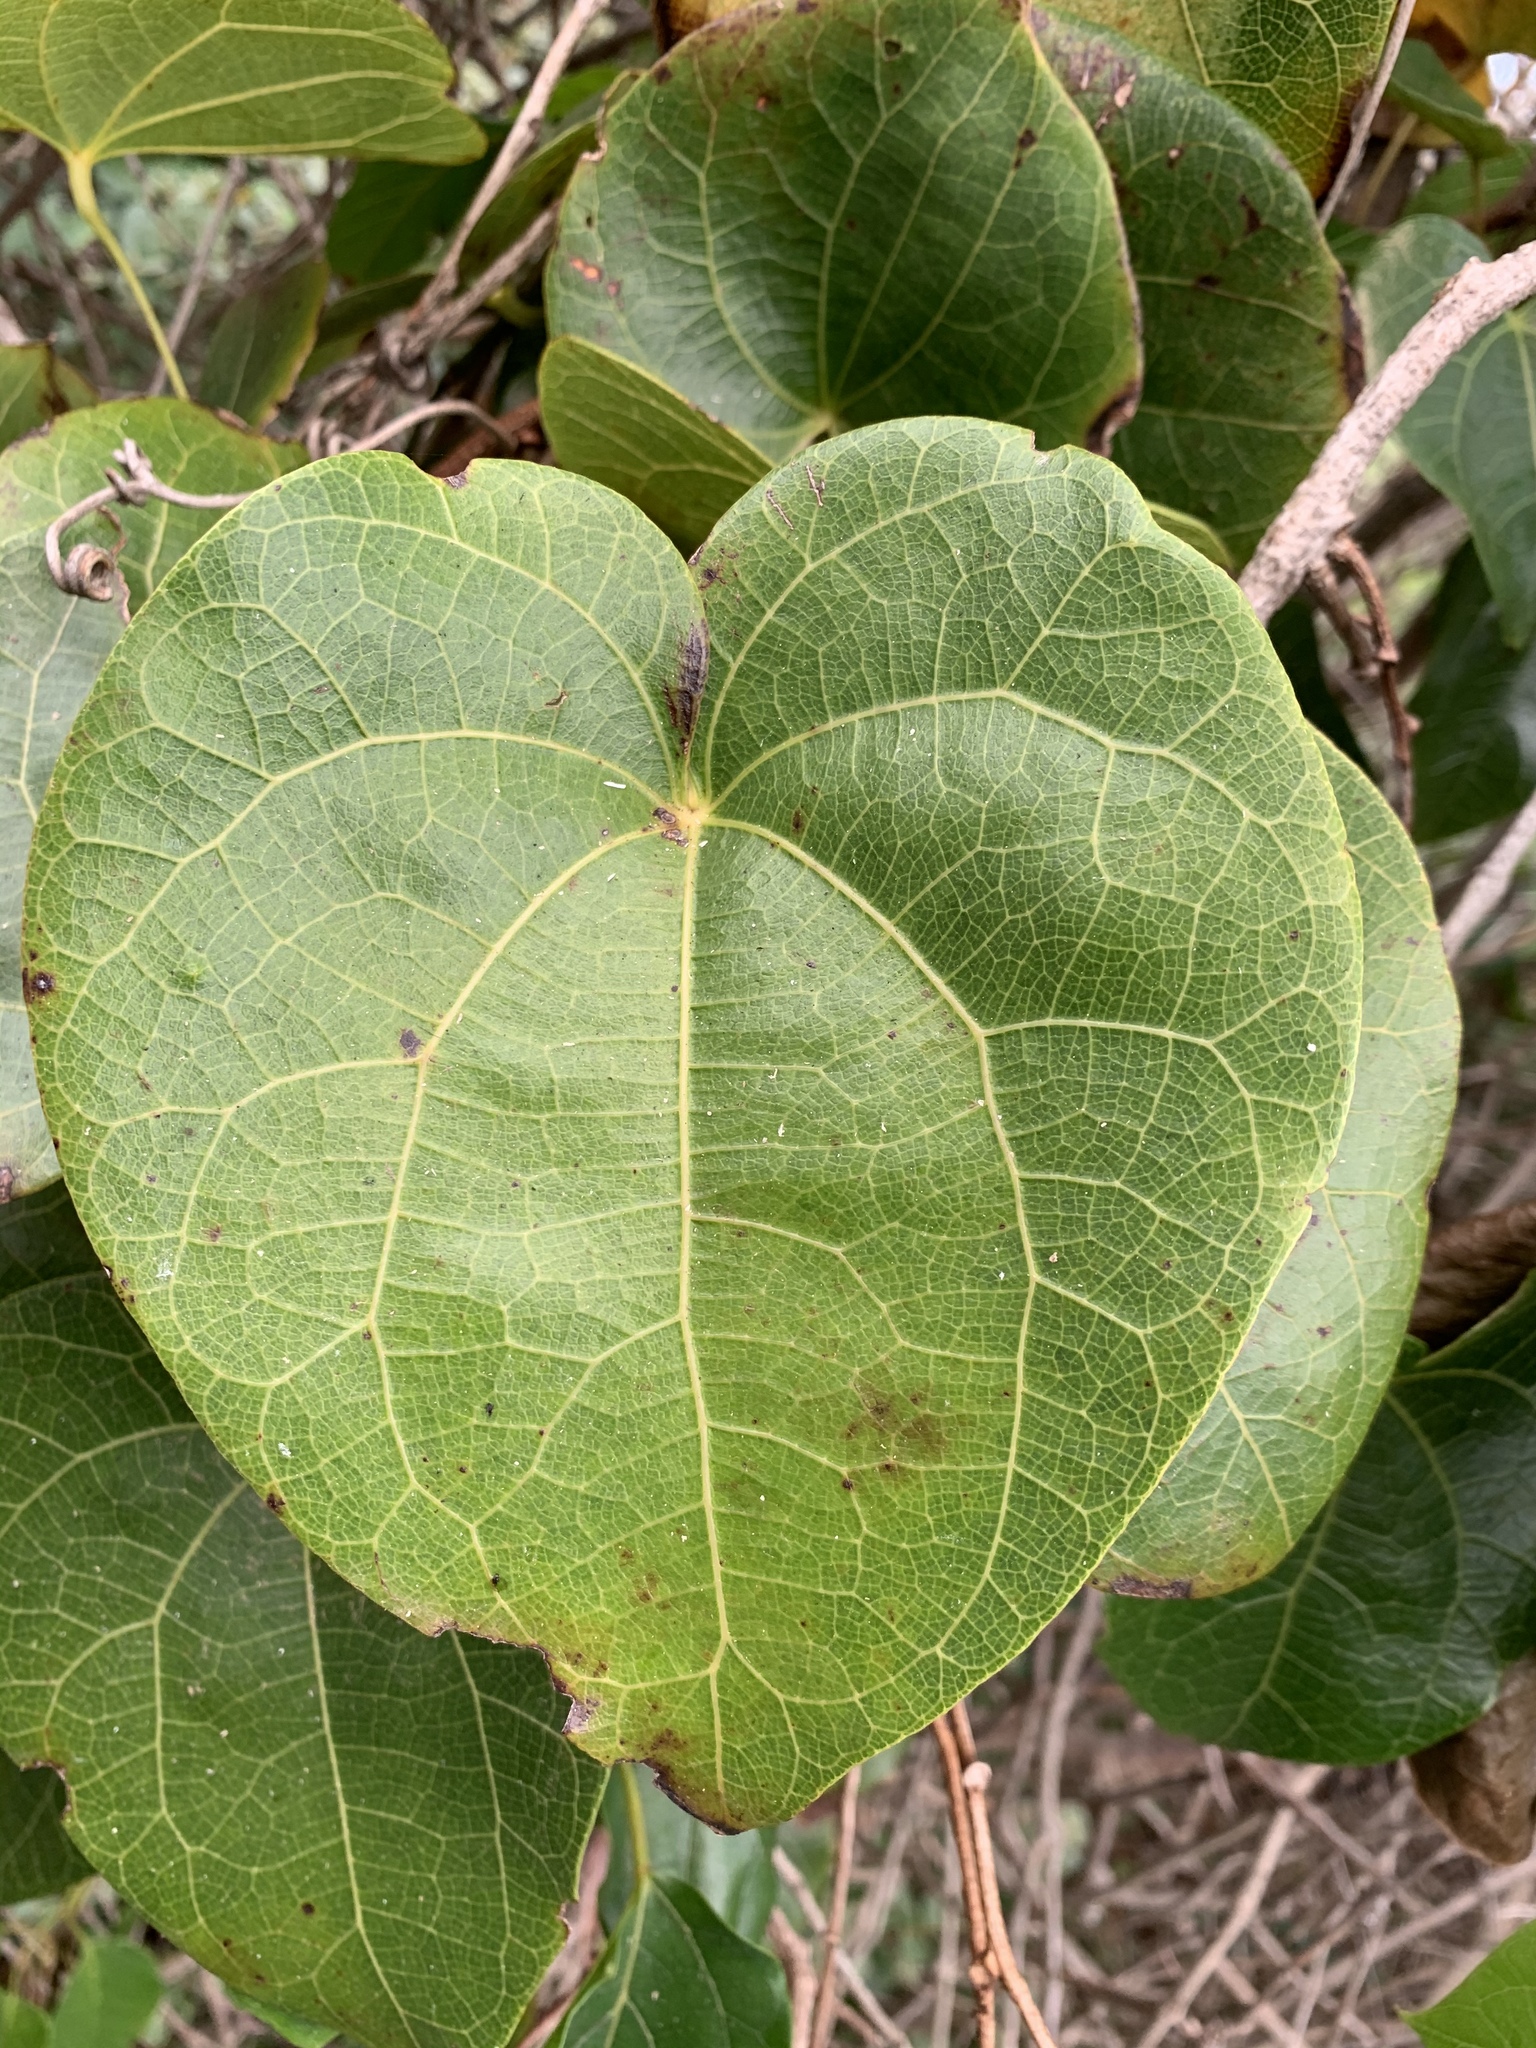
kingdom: Plantae
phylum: Tracheophyta
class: Magnoliopsida
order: Ranunculales
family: Menispermaceae
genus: Sarcopetalum
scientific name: Sarcopetalum harveyanum
